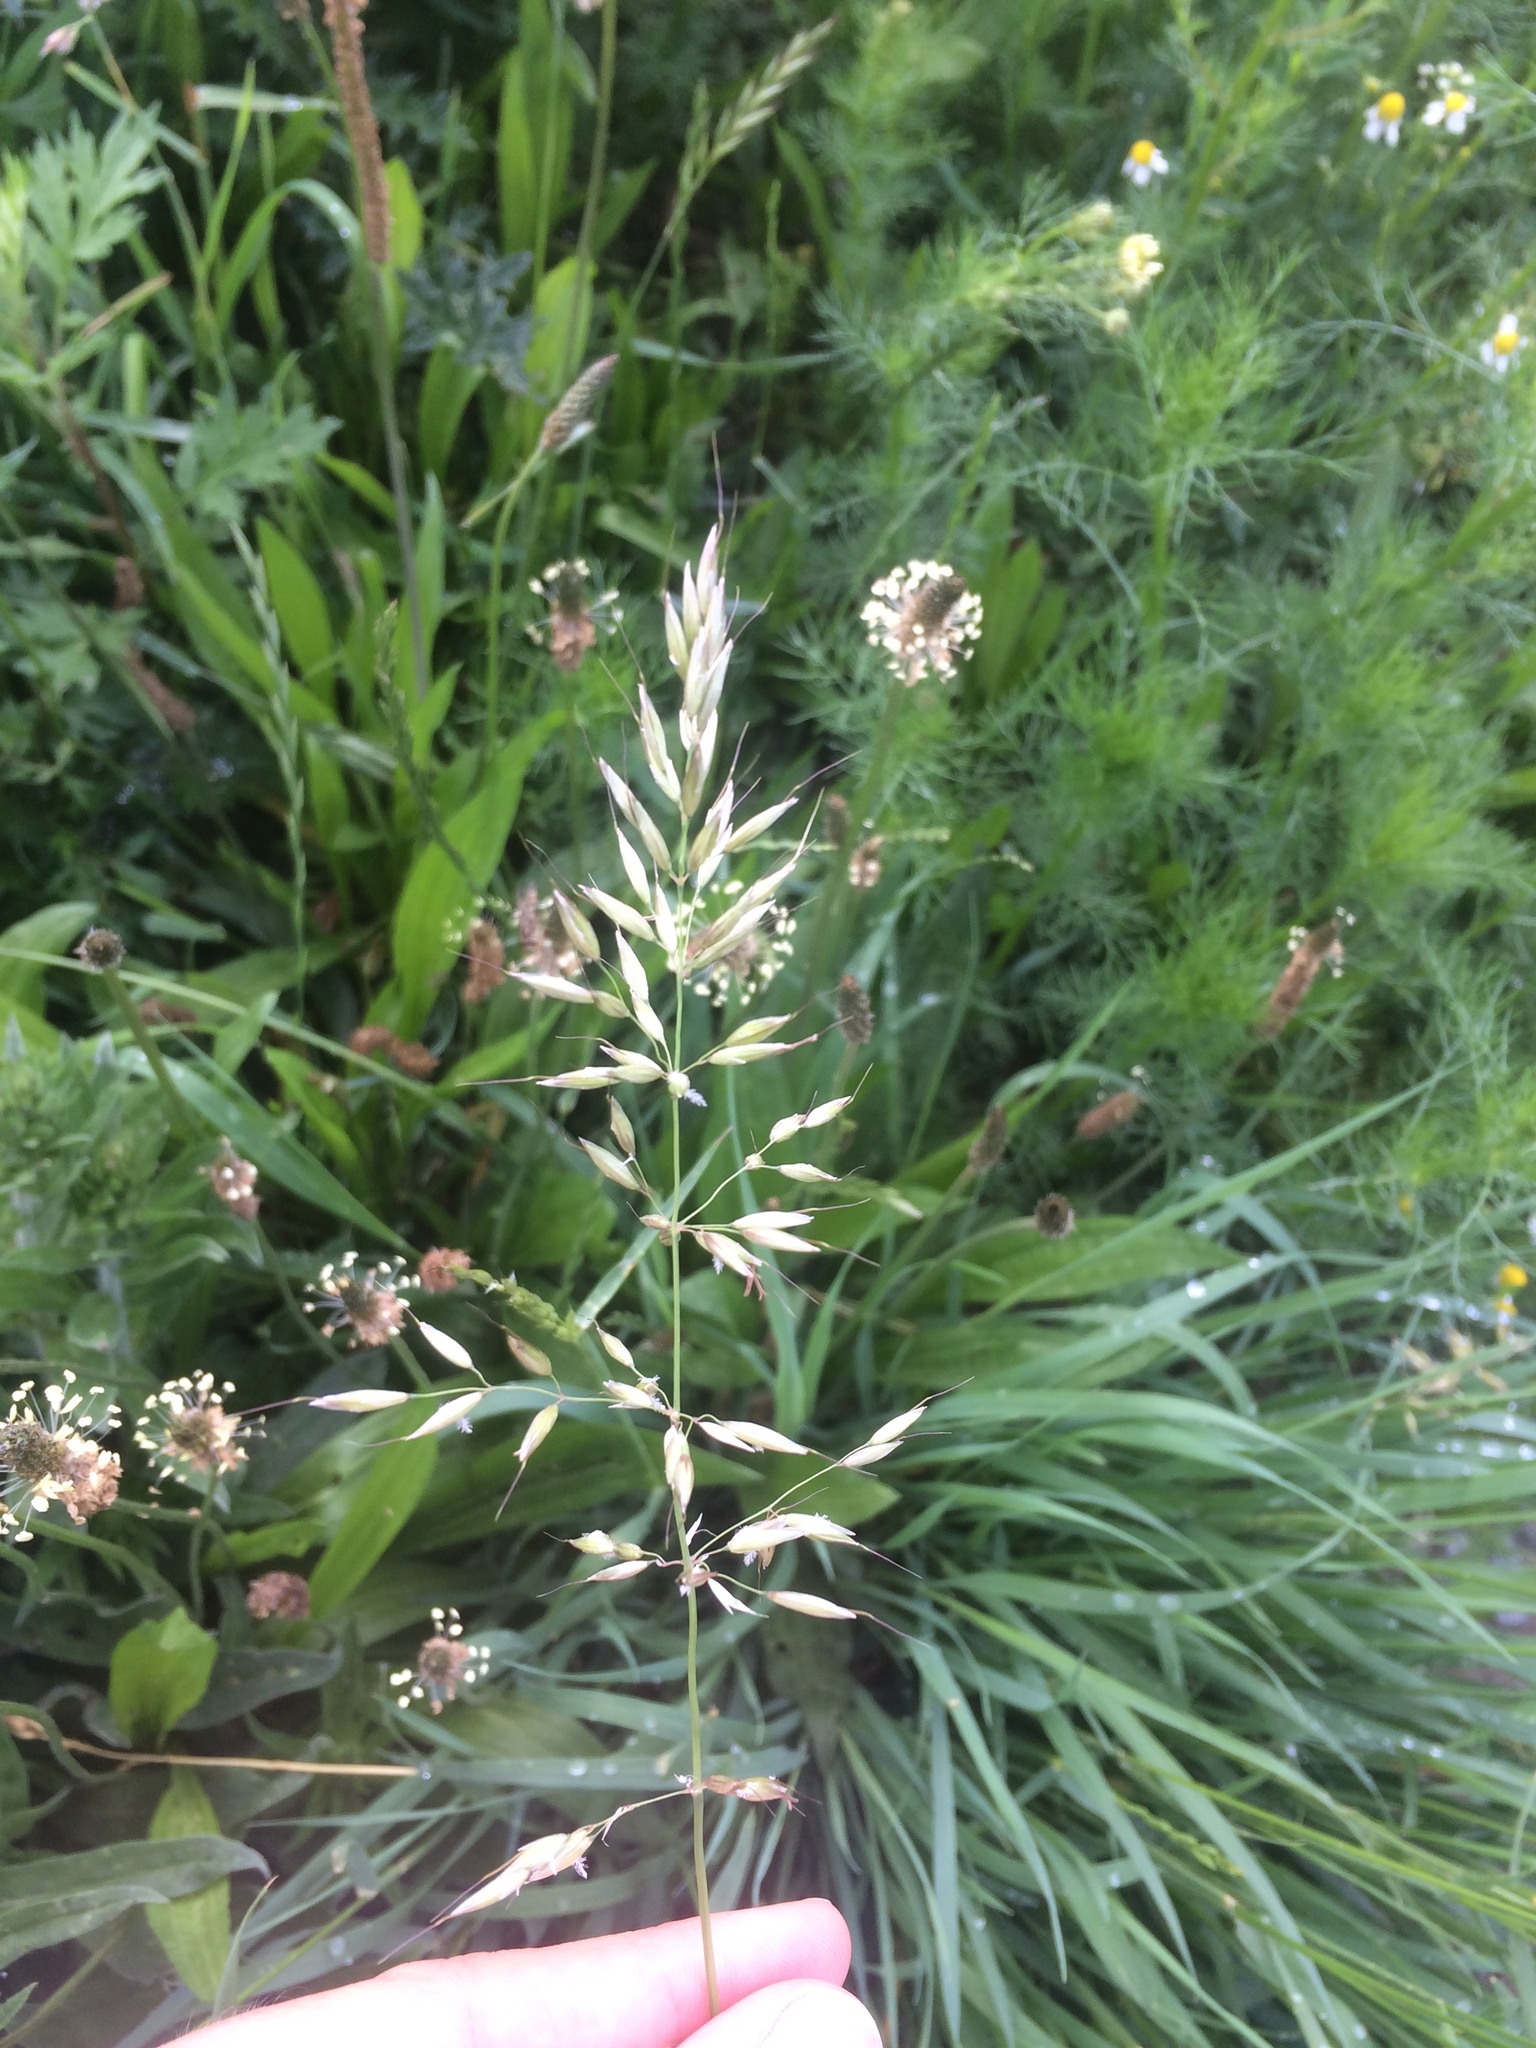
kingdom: Plantae
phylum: Tracheophyta
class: Liliopsida
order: Poales
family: Poaceae
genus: Arrhenatherum
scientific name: Arrhenatherum elatius
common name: Tall oatgrass
